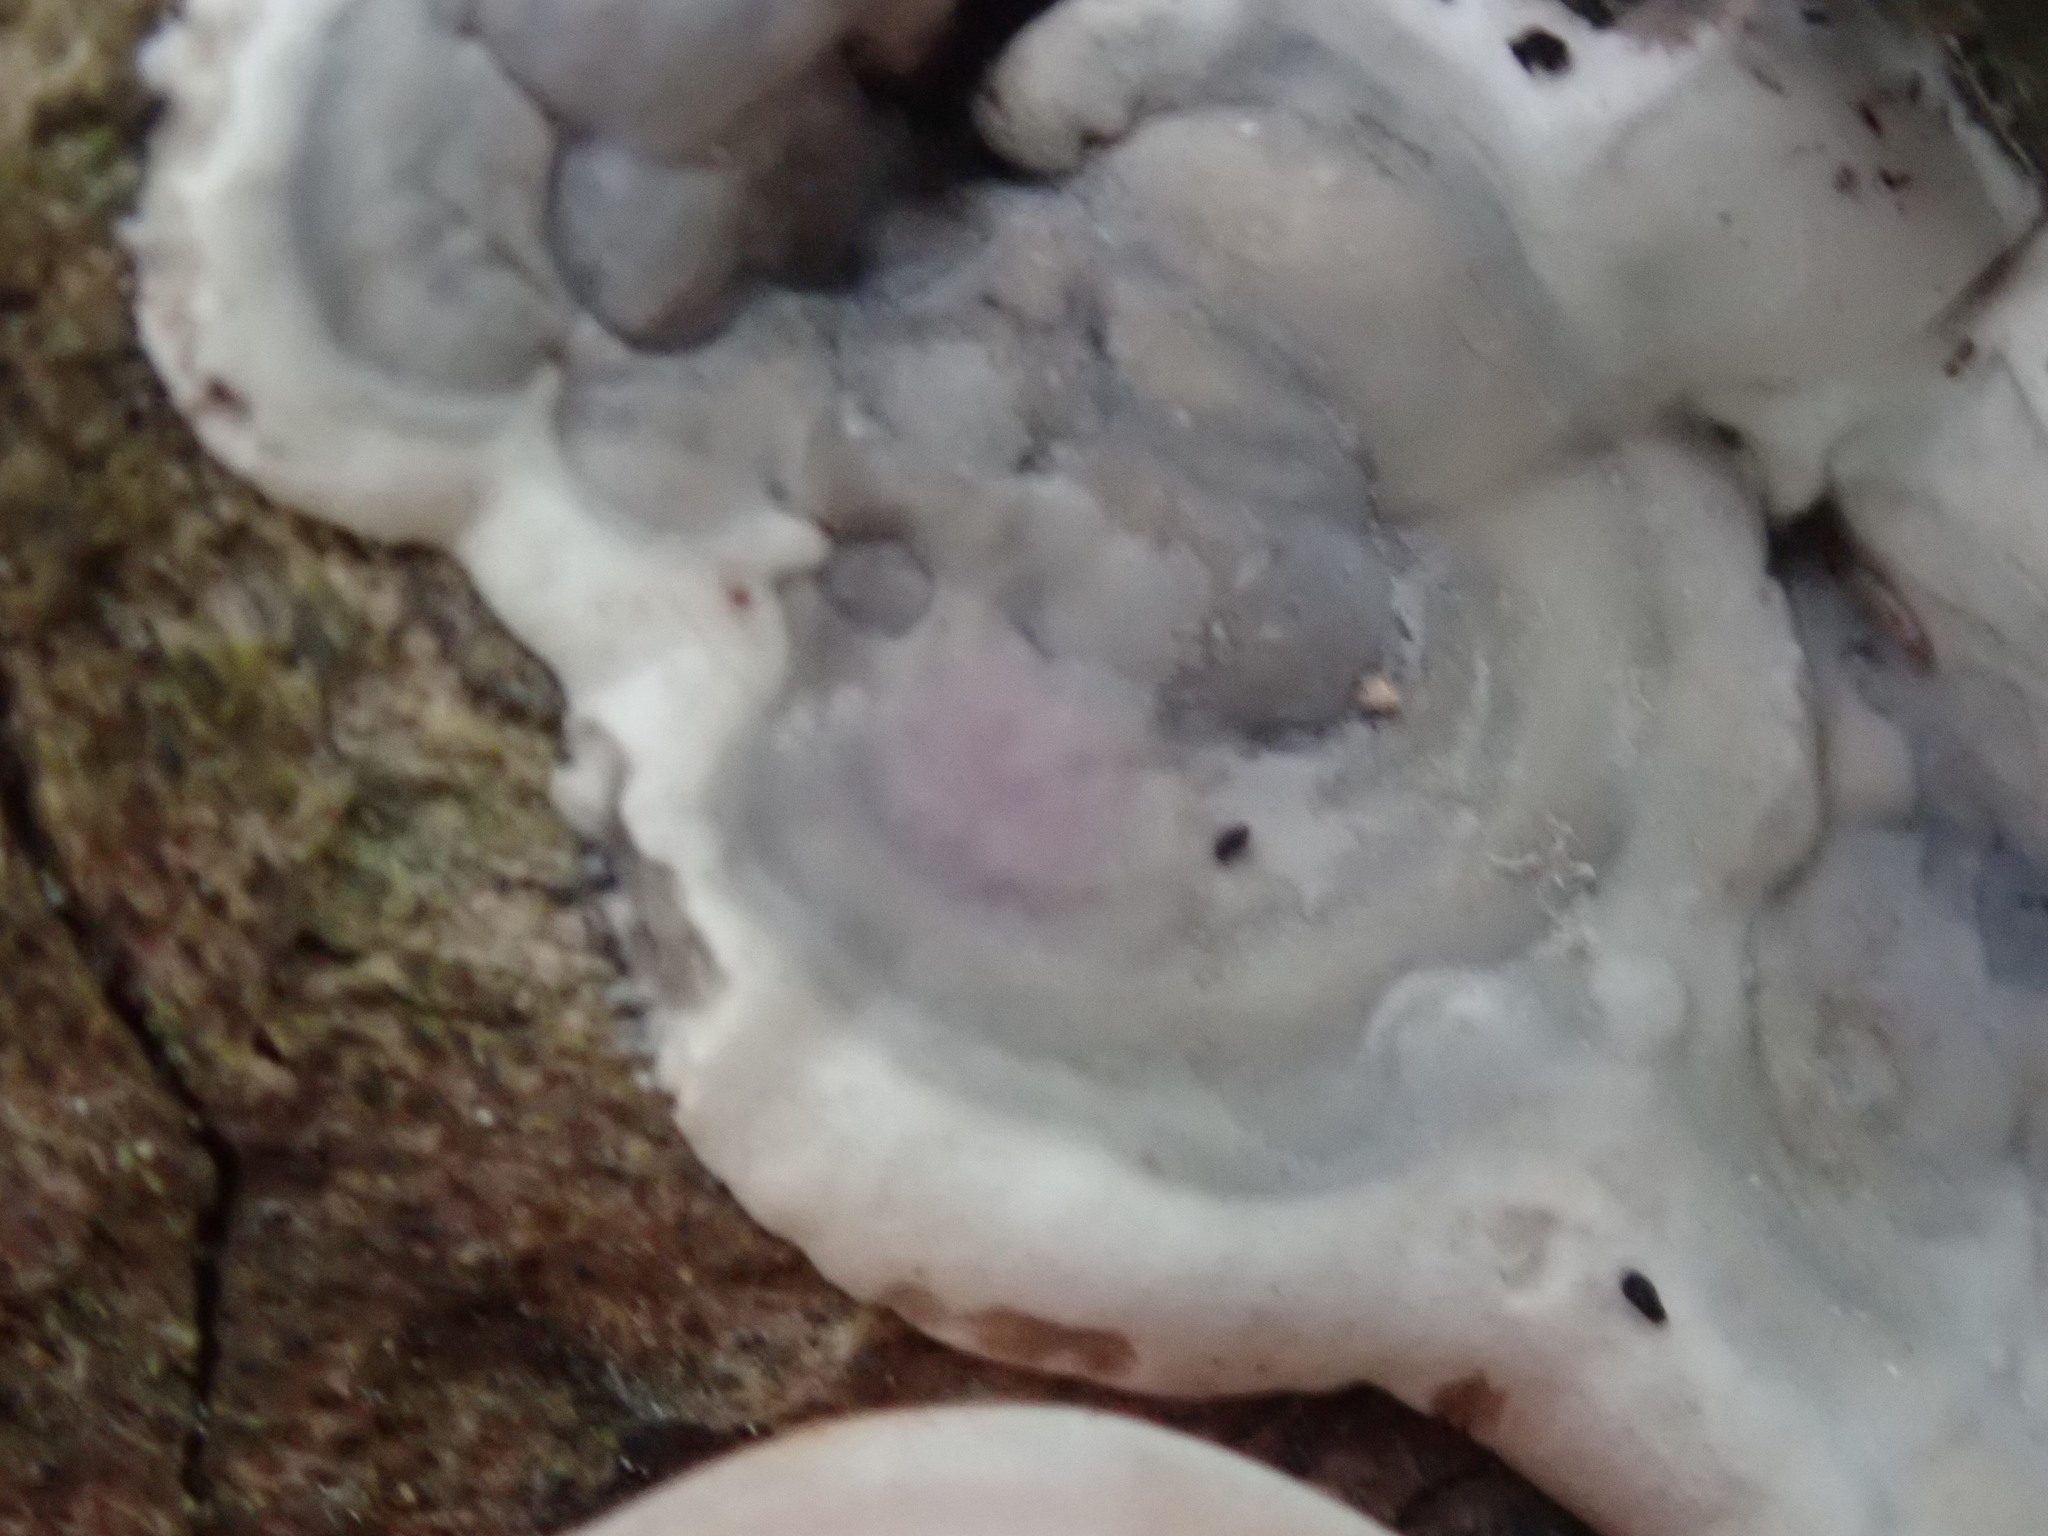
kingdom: Fungi
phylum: Ascomycota
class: Sordariomycetes
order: Xylariales
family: Xylariaceae
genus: Kretzschmaria
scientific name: Kretzschmaria deusta
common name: Brittle cinder
